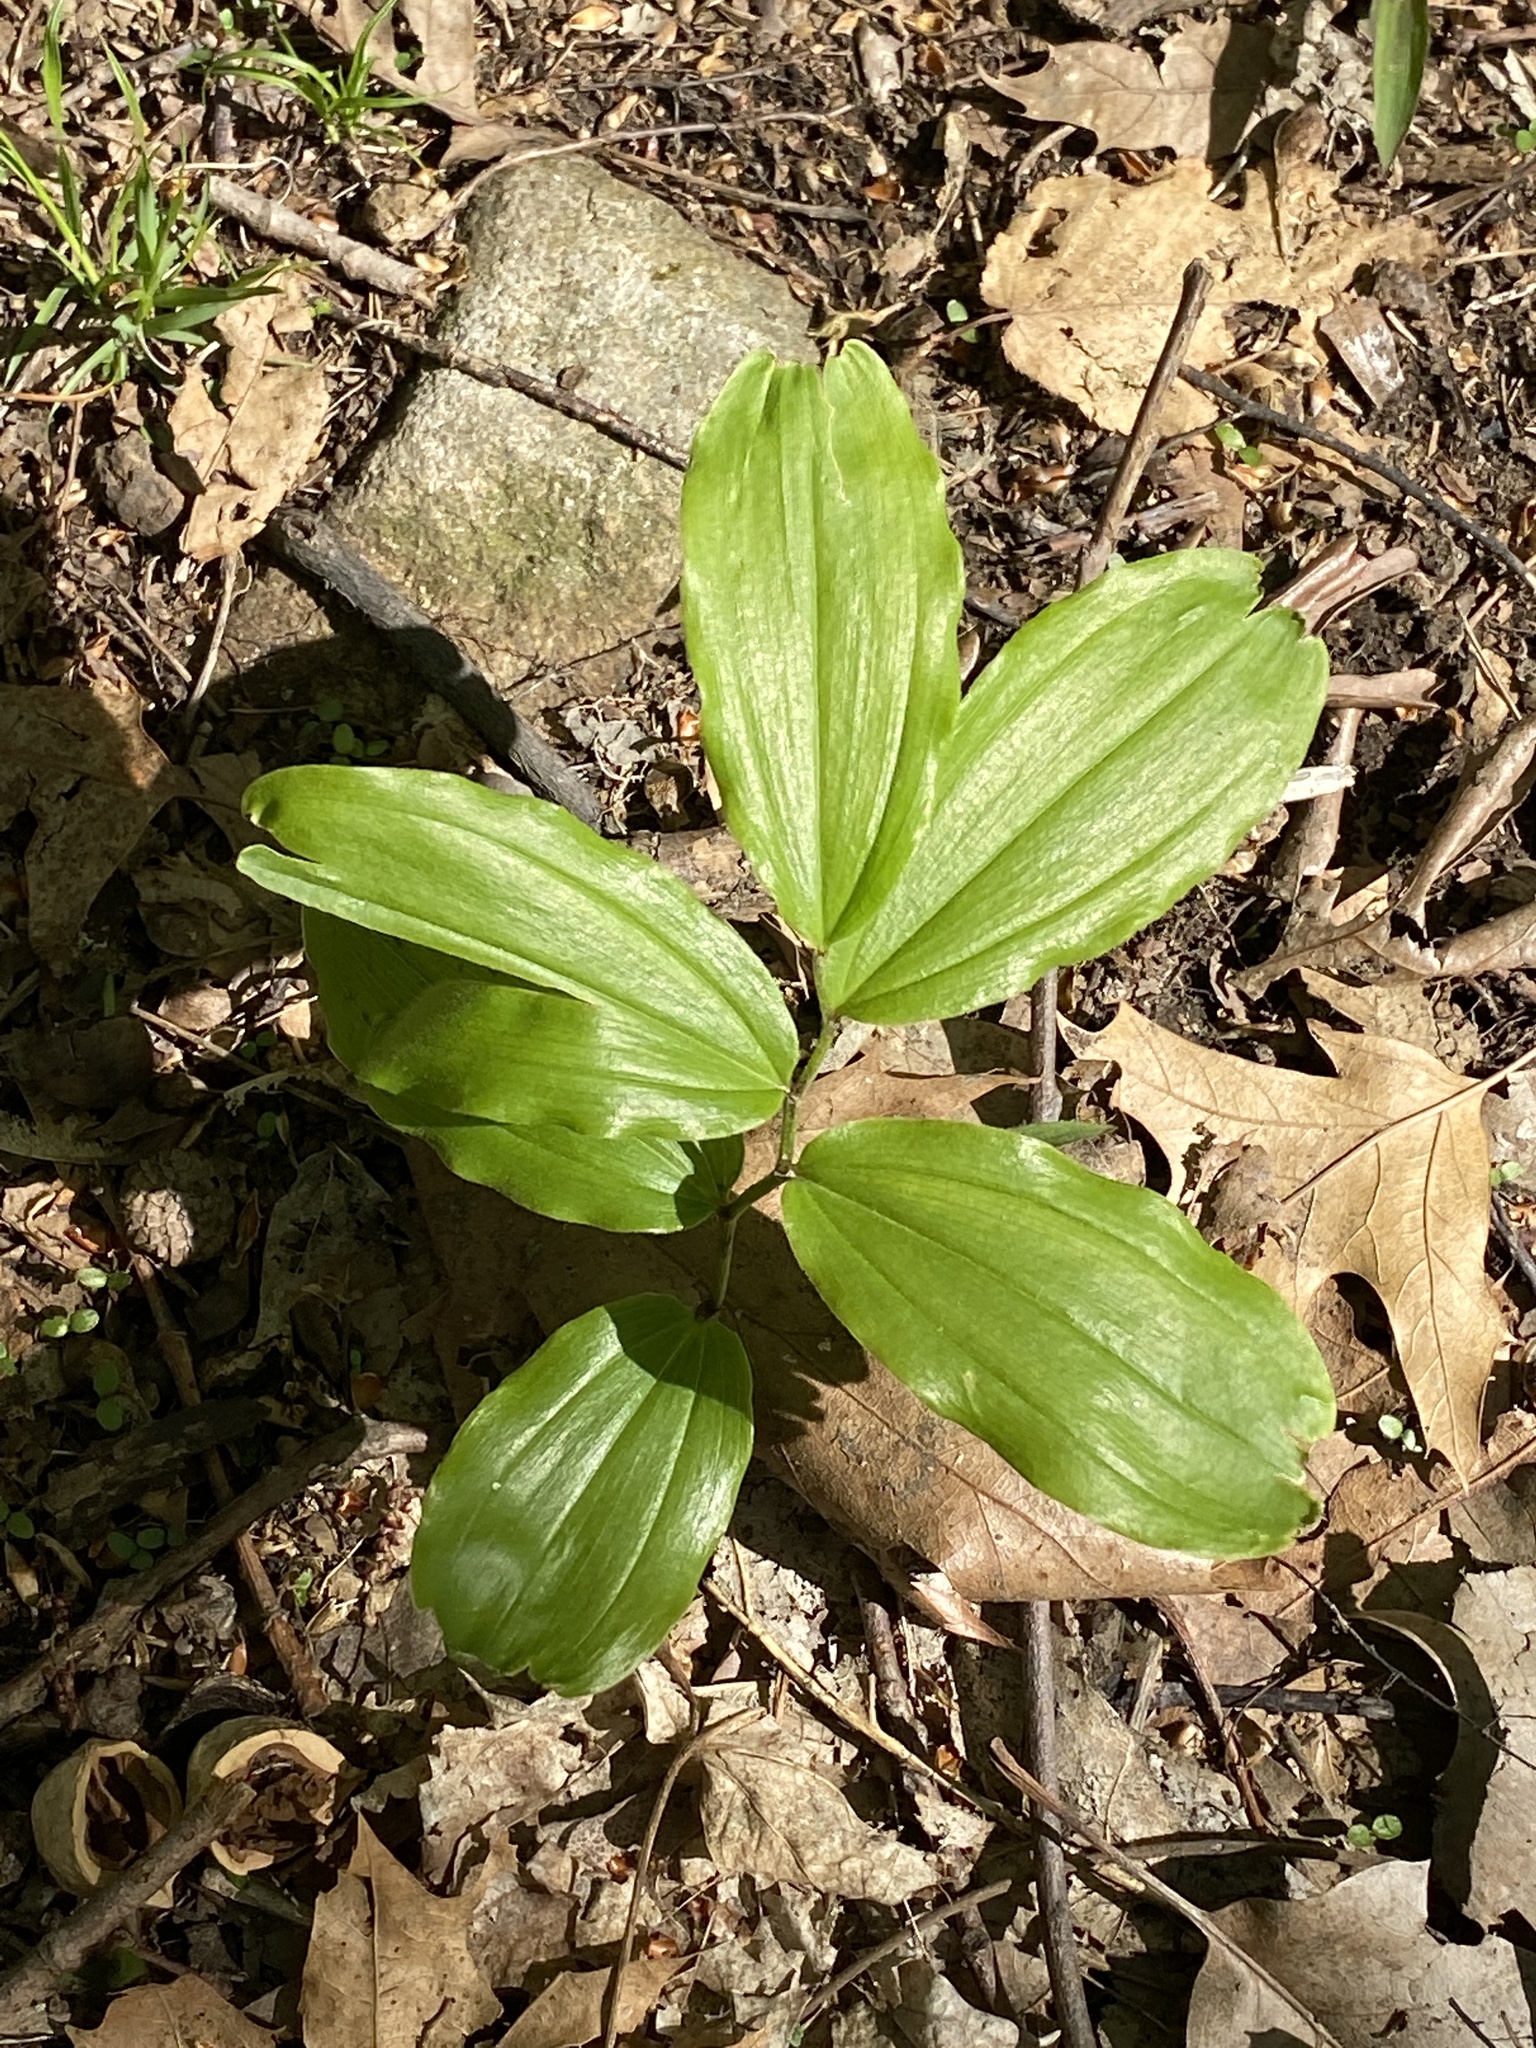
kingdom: Plantae
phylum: Tracheophyta
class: Liliopsida
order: Asparagales
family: Asparagaceae
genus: Maianthemum
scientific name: Maianthemum racemosum
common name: False spikenard
